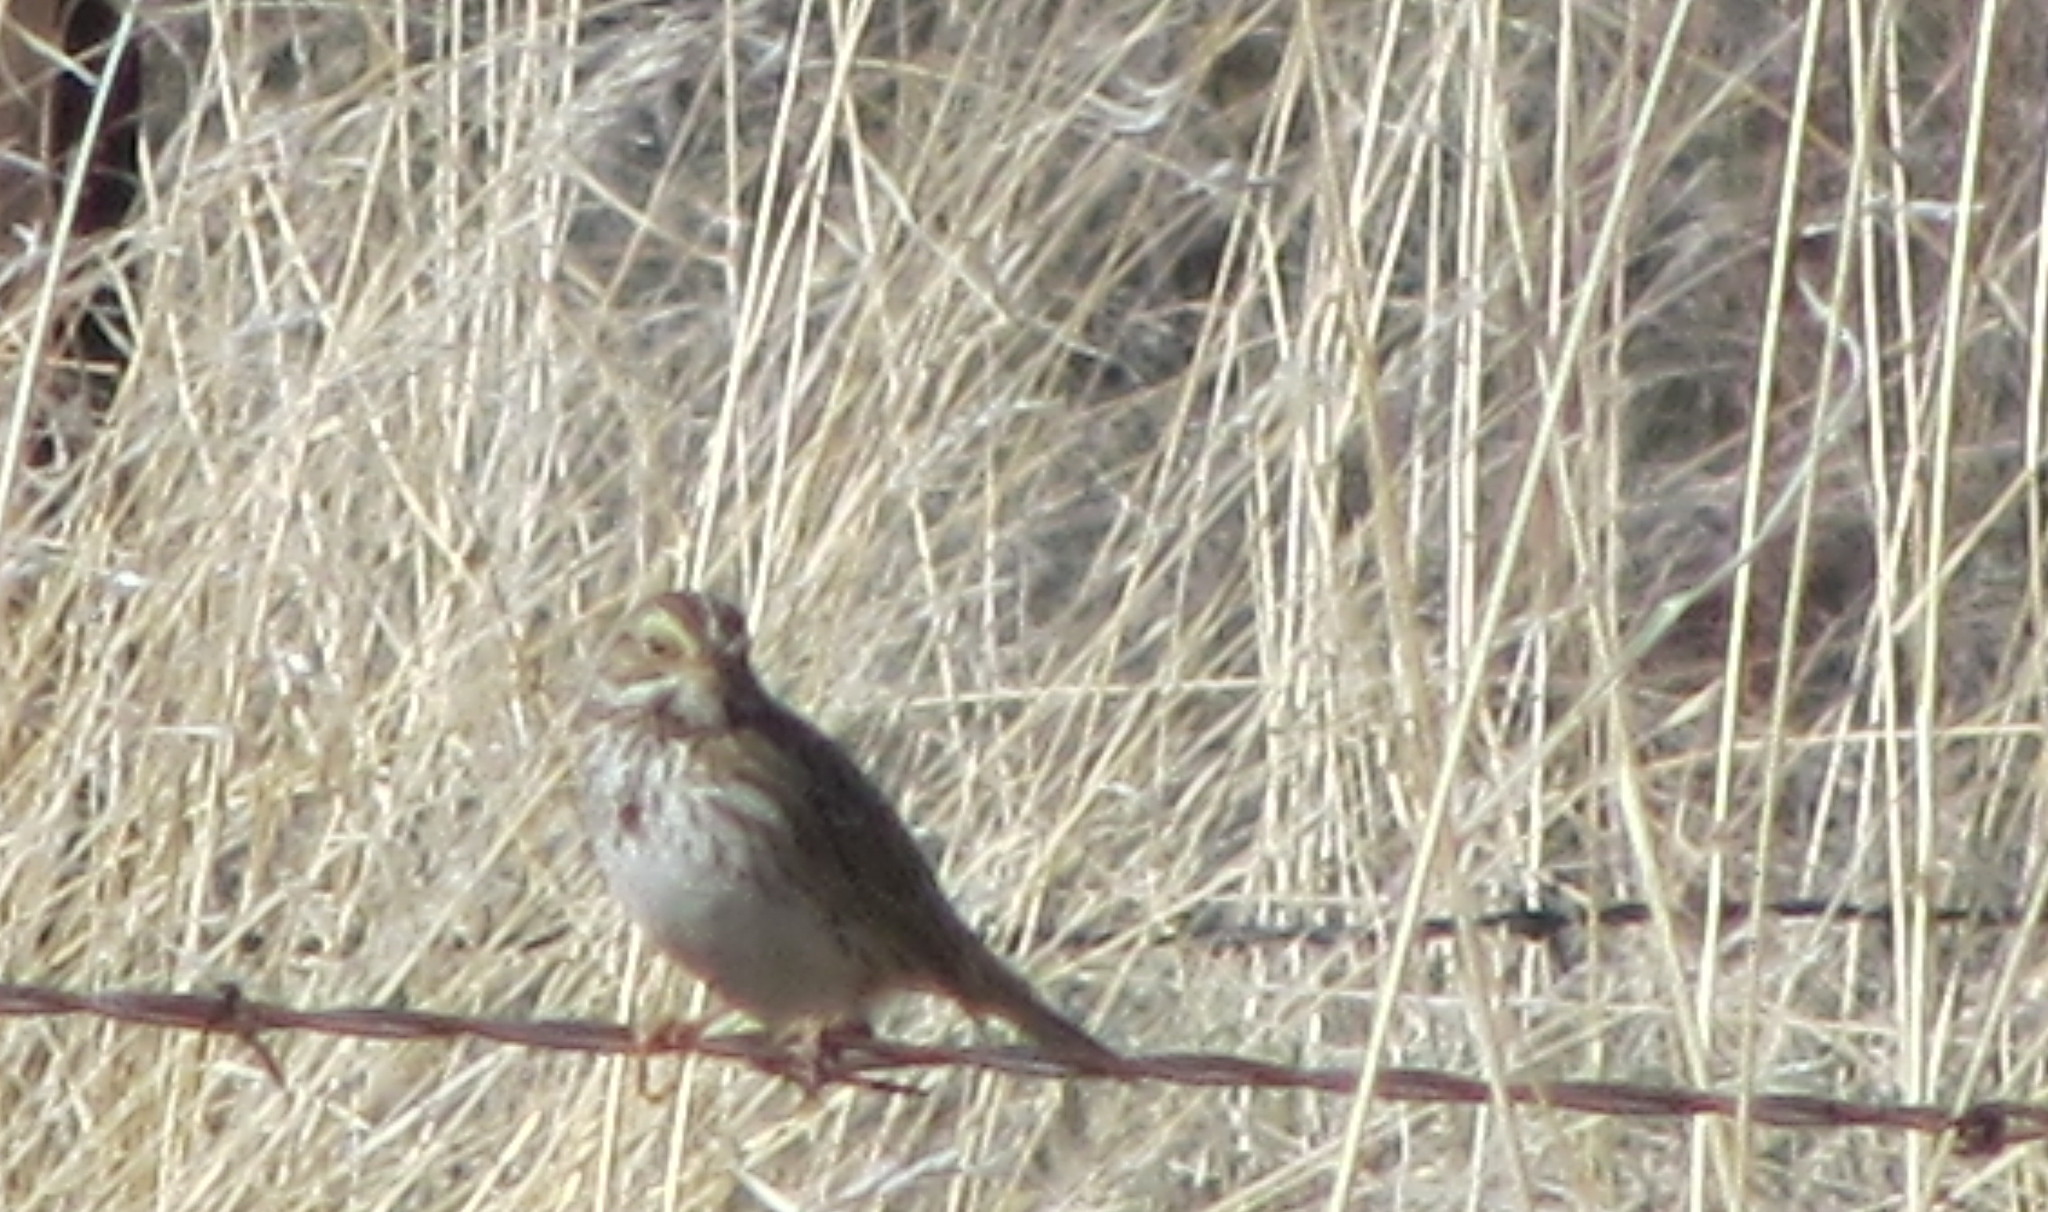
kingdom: Animalia
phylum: Chordata
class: Aves
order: Passeriformes
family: Passerellidae
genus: Passerculus
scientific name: Passerculus sandwichensis
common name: Savannah sparrow
